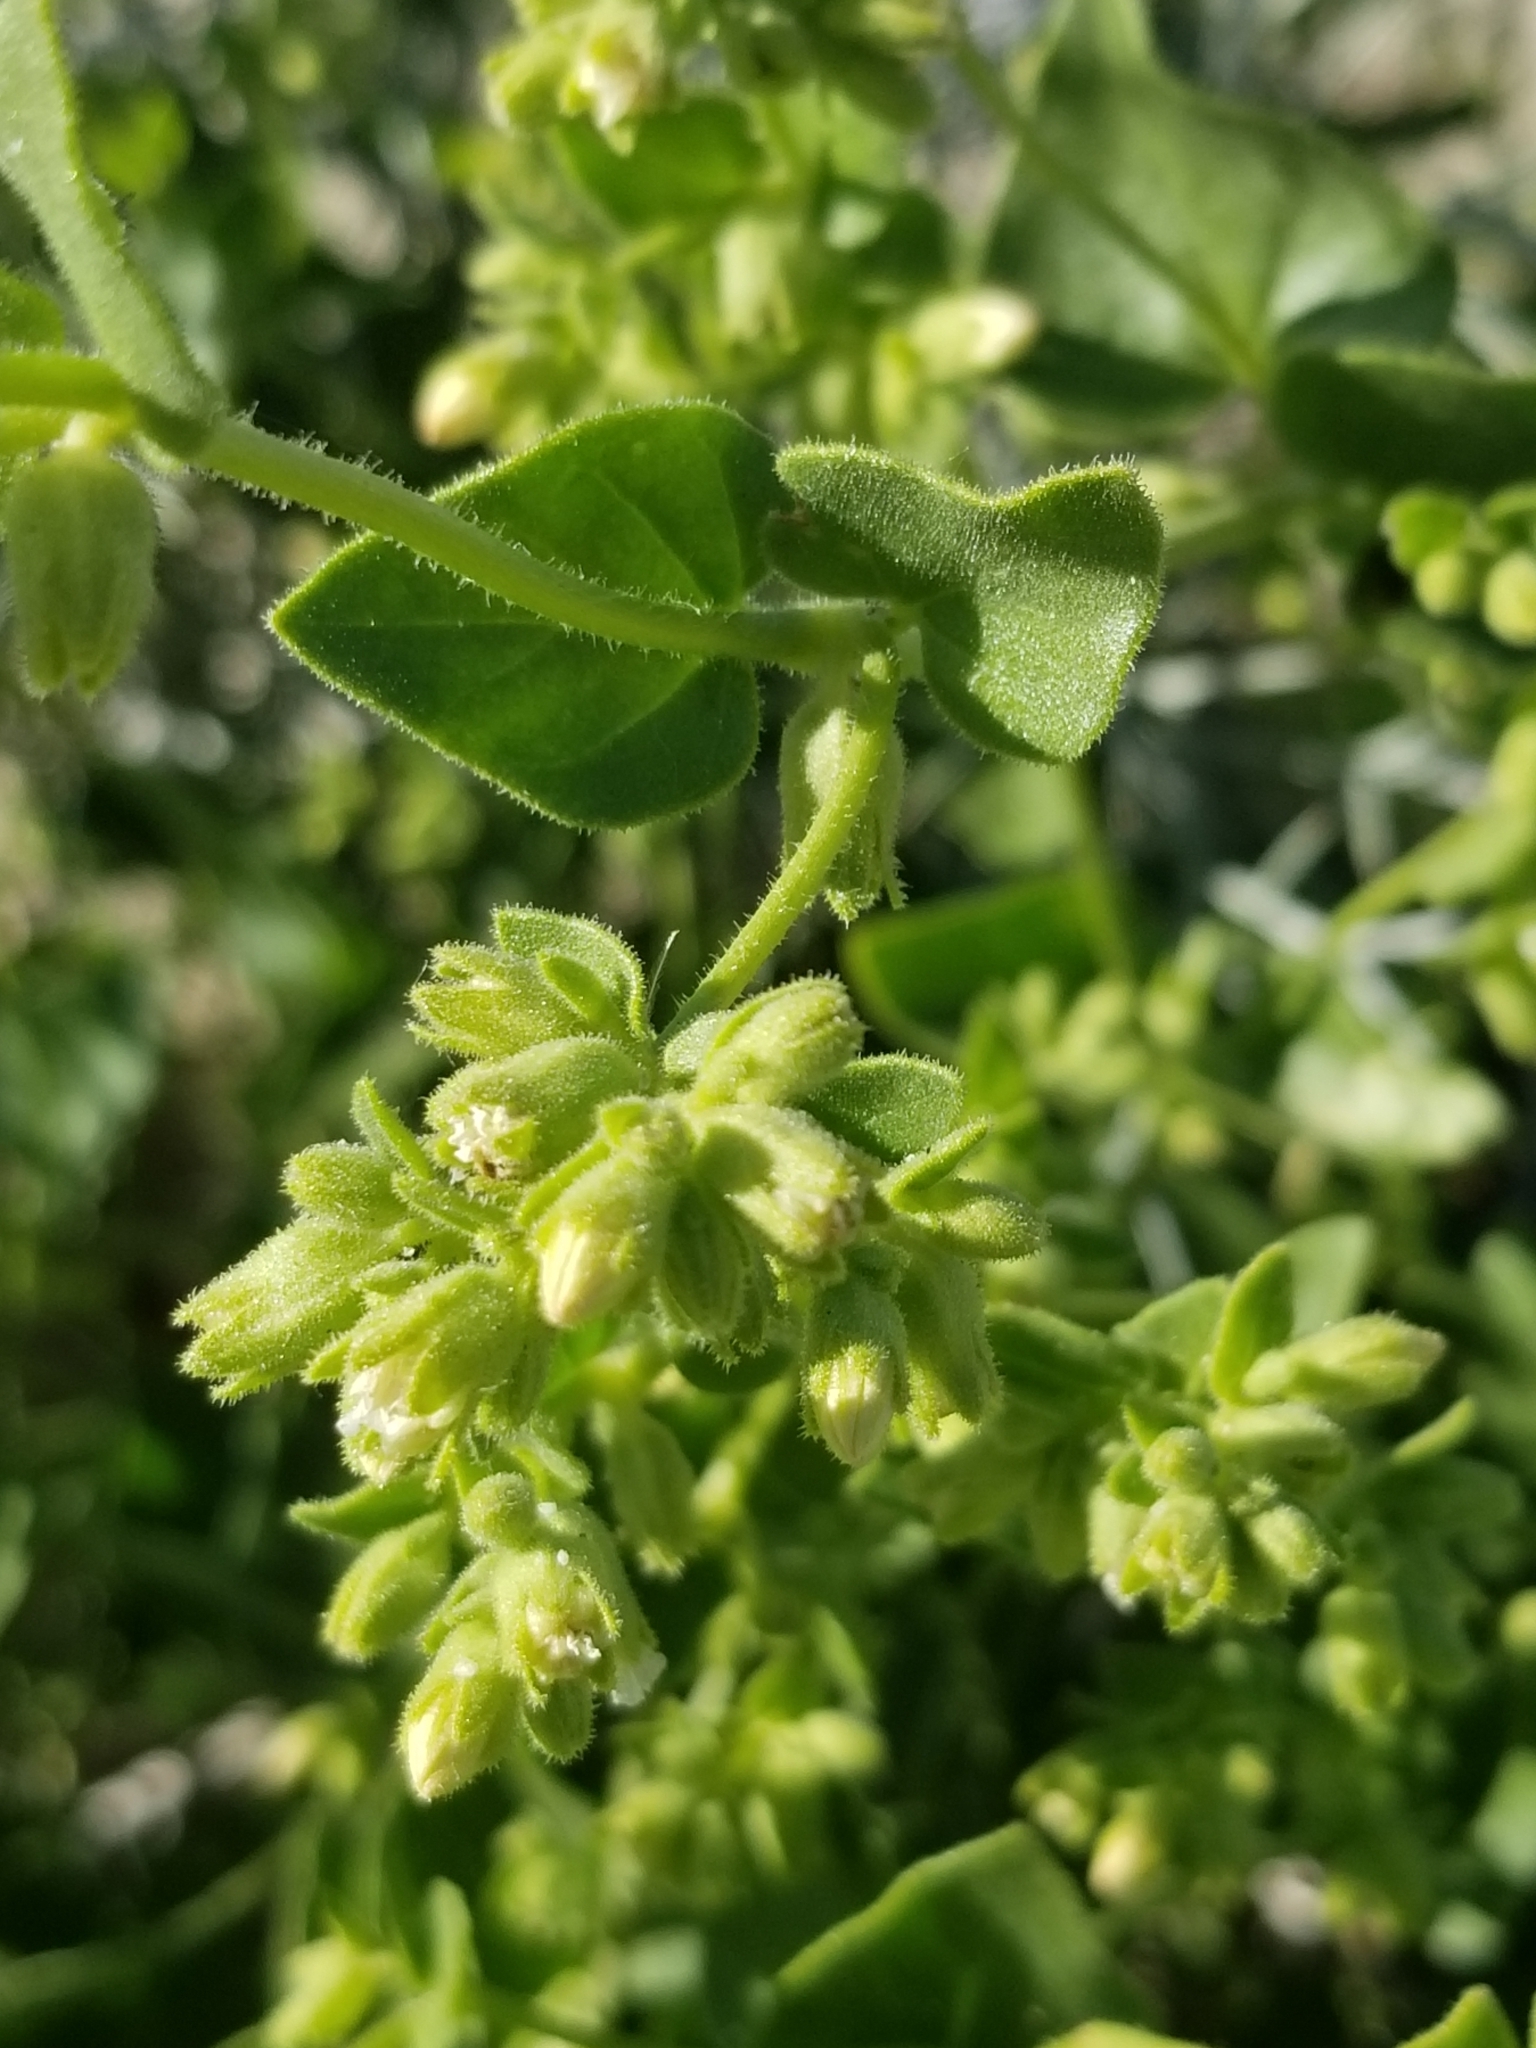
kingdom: Plantae
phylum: Tracheophyta
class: Magnoliopsida
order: Caryophyllales
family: Nyctaginaceae
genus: Mirabilis
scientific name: Mirabilis laevis
